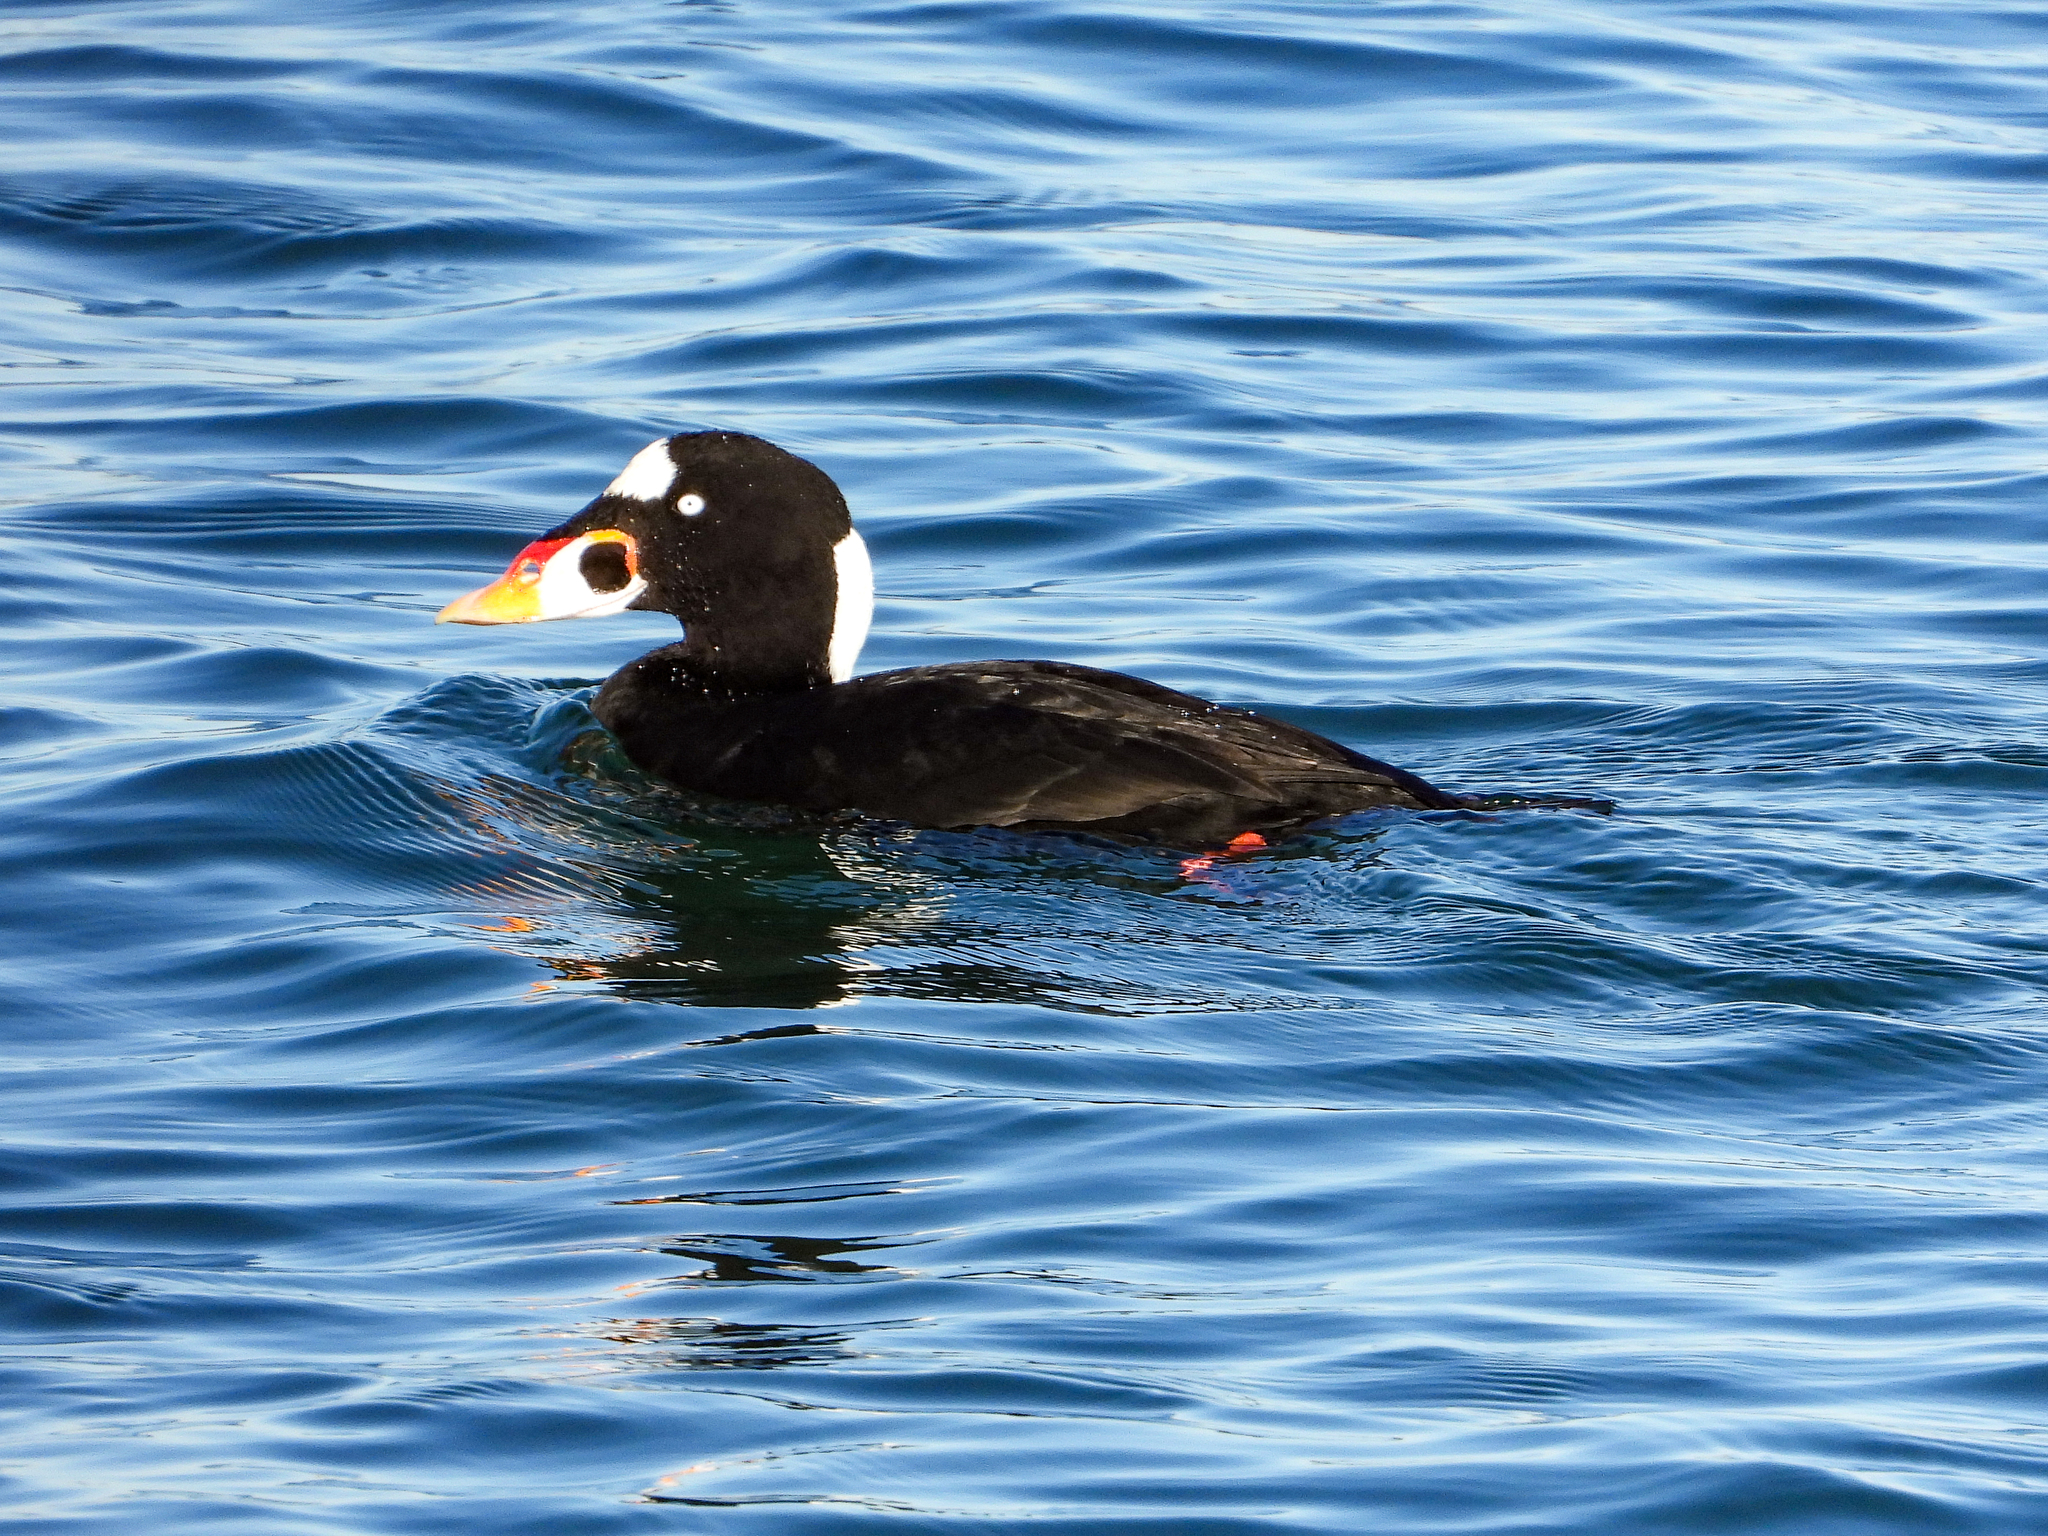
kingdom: Animalia
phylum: Chordata
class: Aves
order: Anseriformes
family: Anatidae
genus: Melanitta
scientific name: Melanitta perspicillata
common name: Surf scoter
